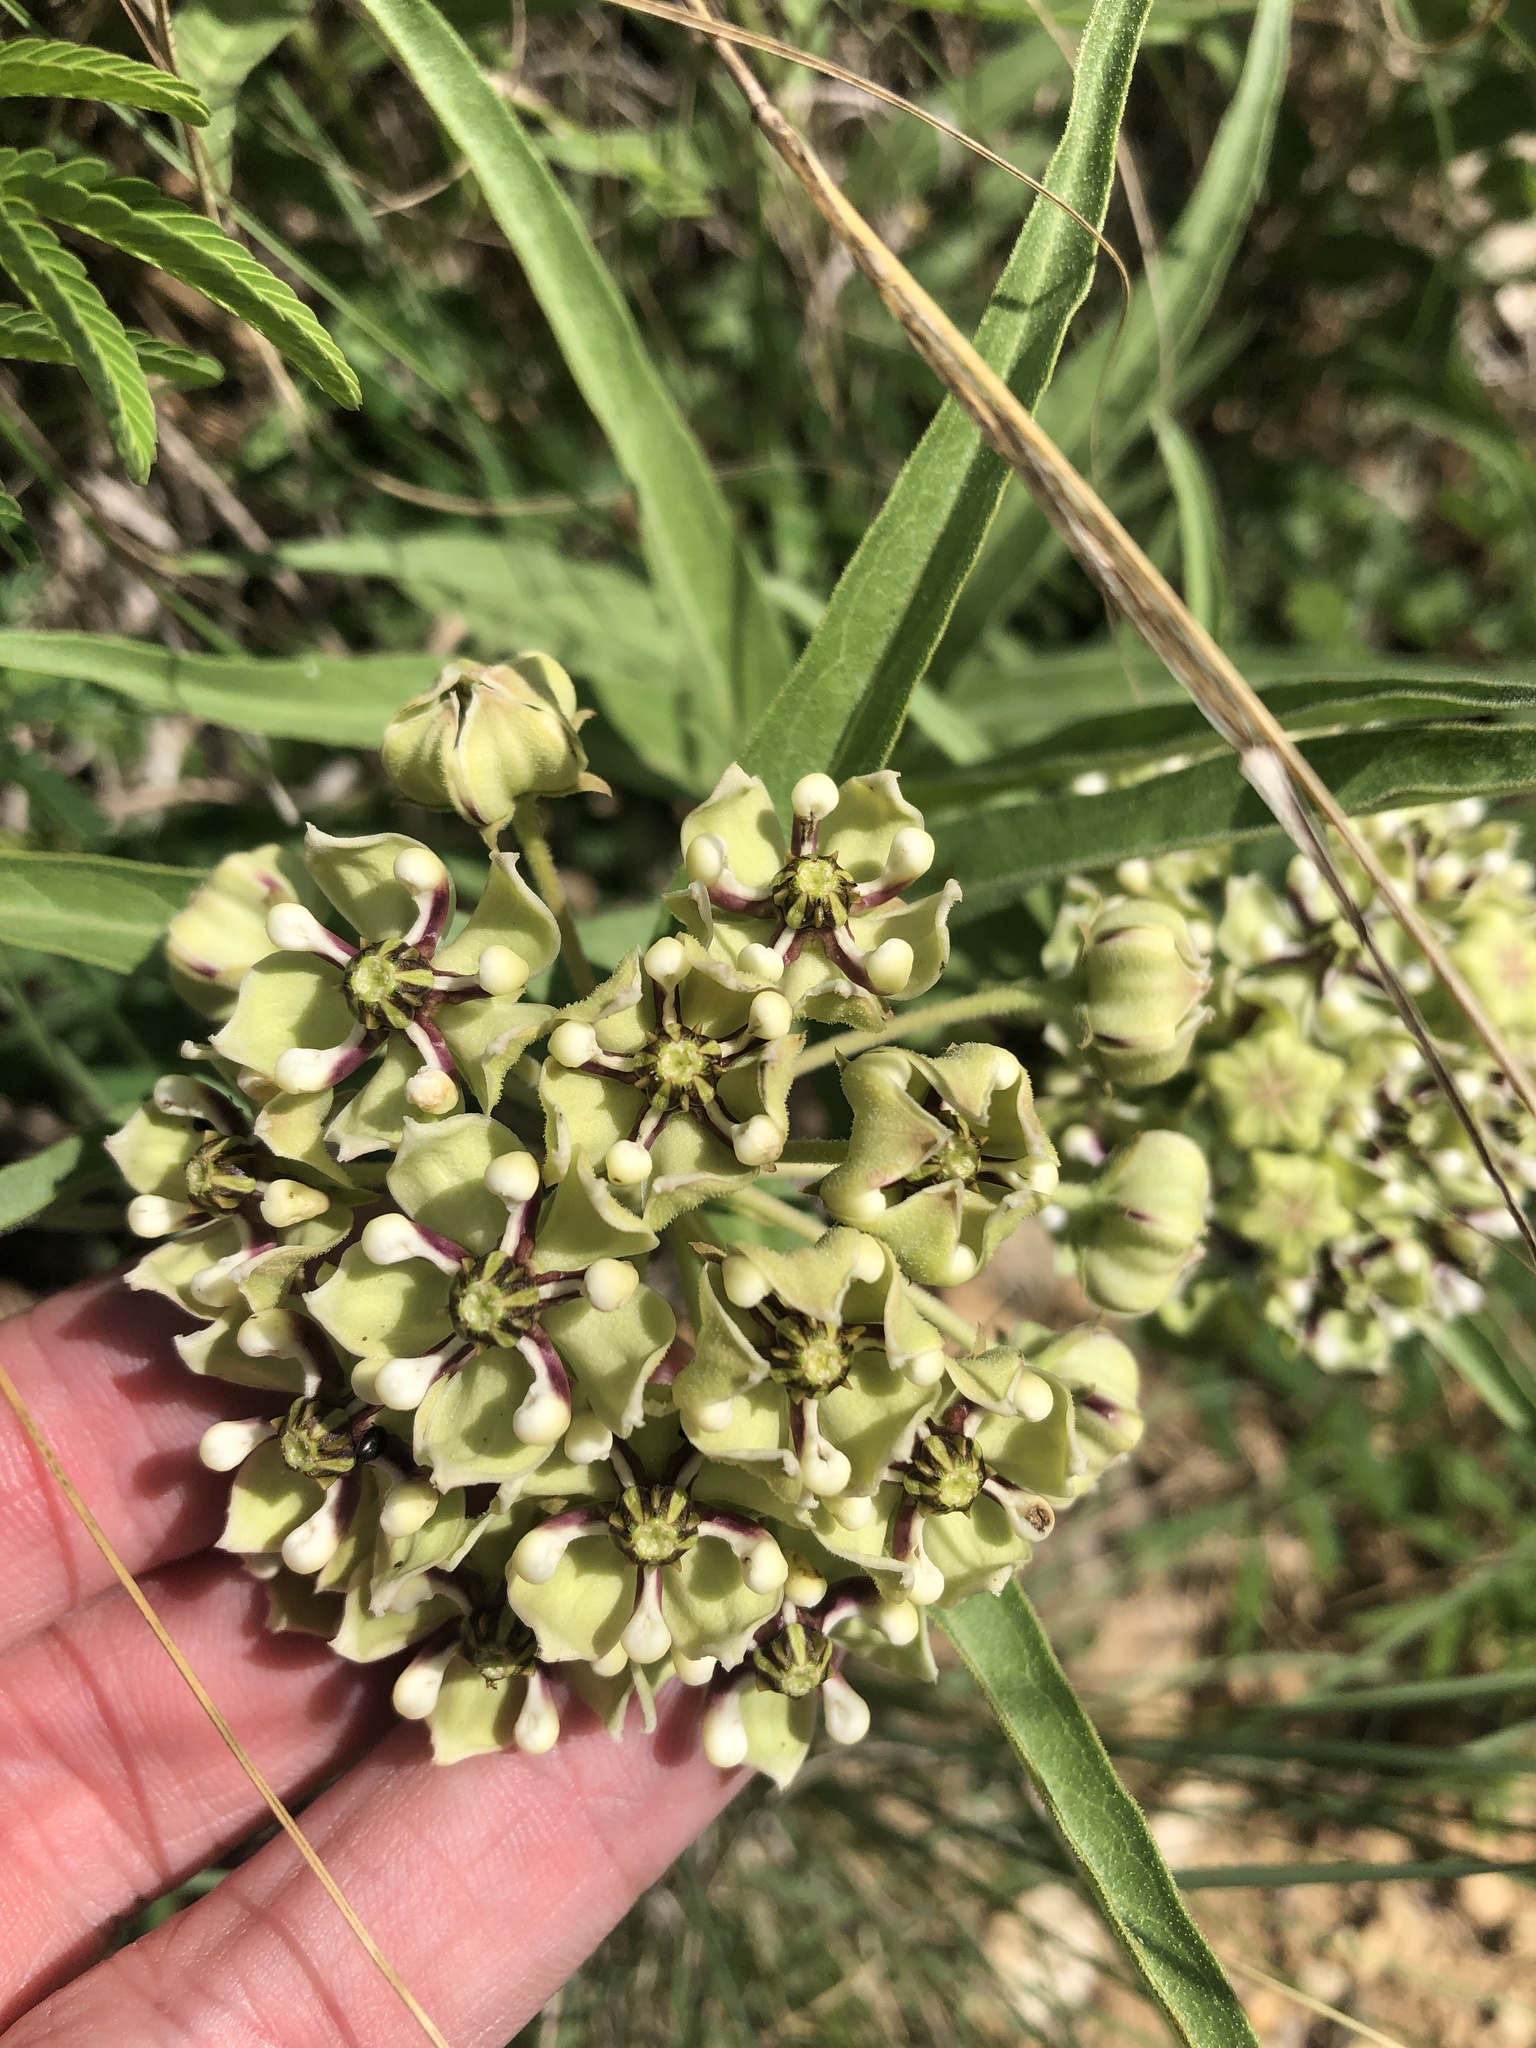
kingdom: Plantae
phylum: Tracheophyta
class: Magnoliopsida
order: Gentianales
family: Apocynaceae
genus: Asclepias
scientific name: Asclepias asperula
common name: Antelope horns
